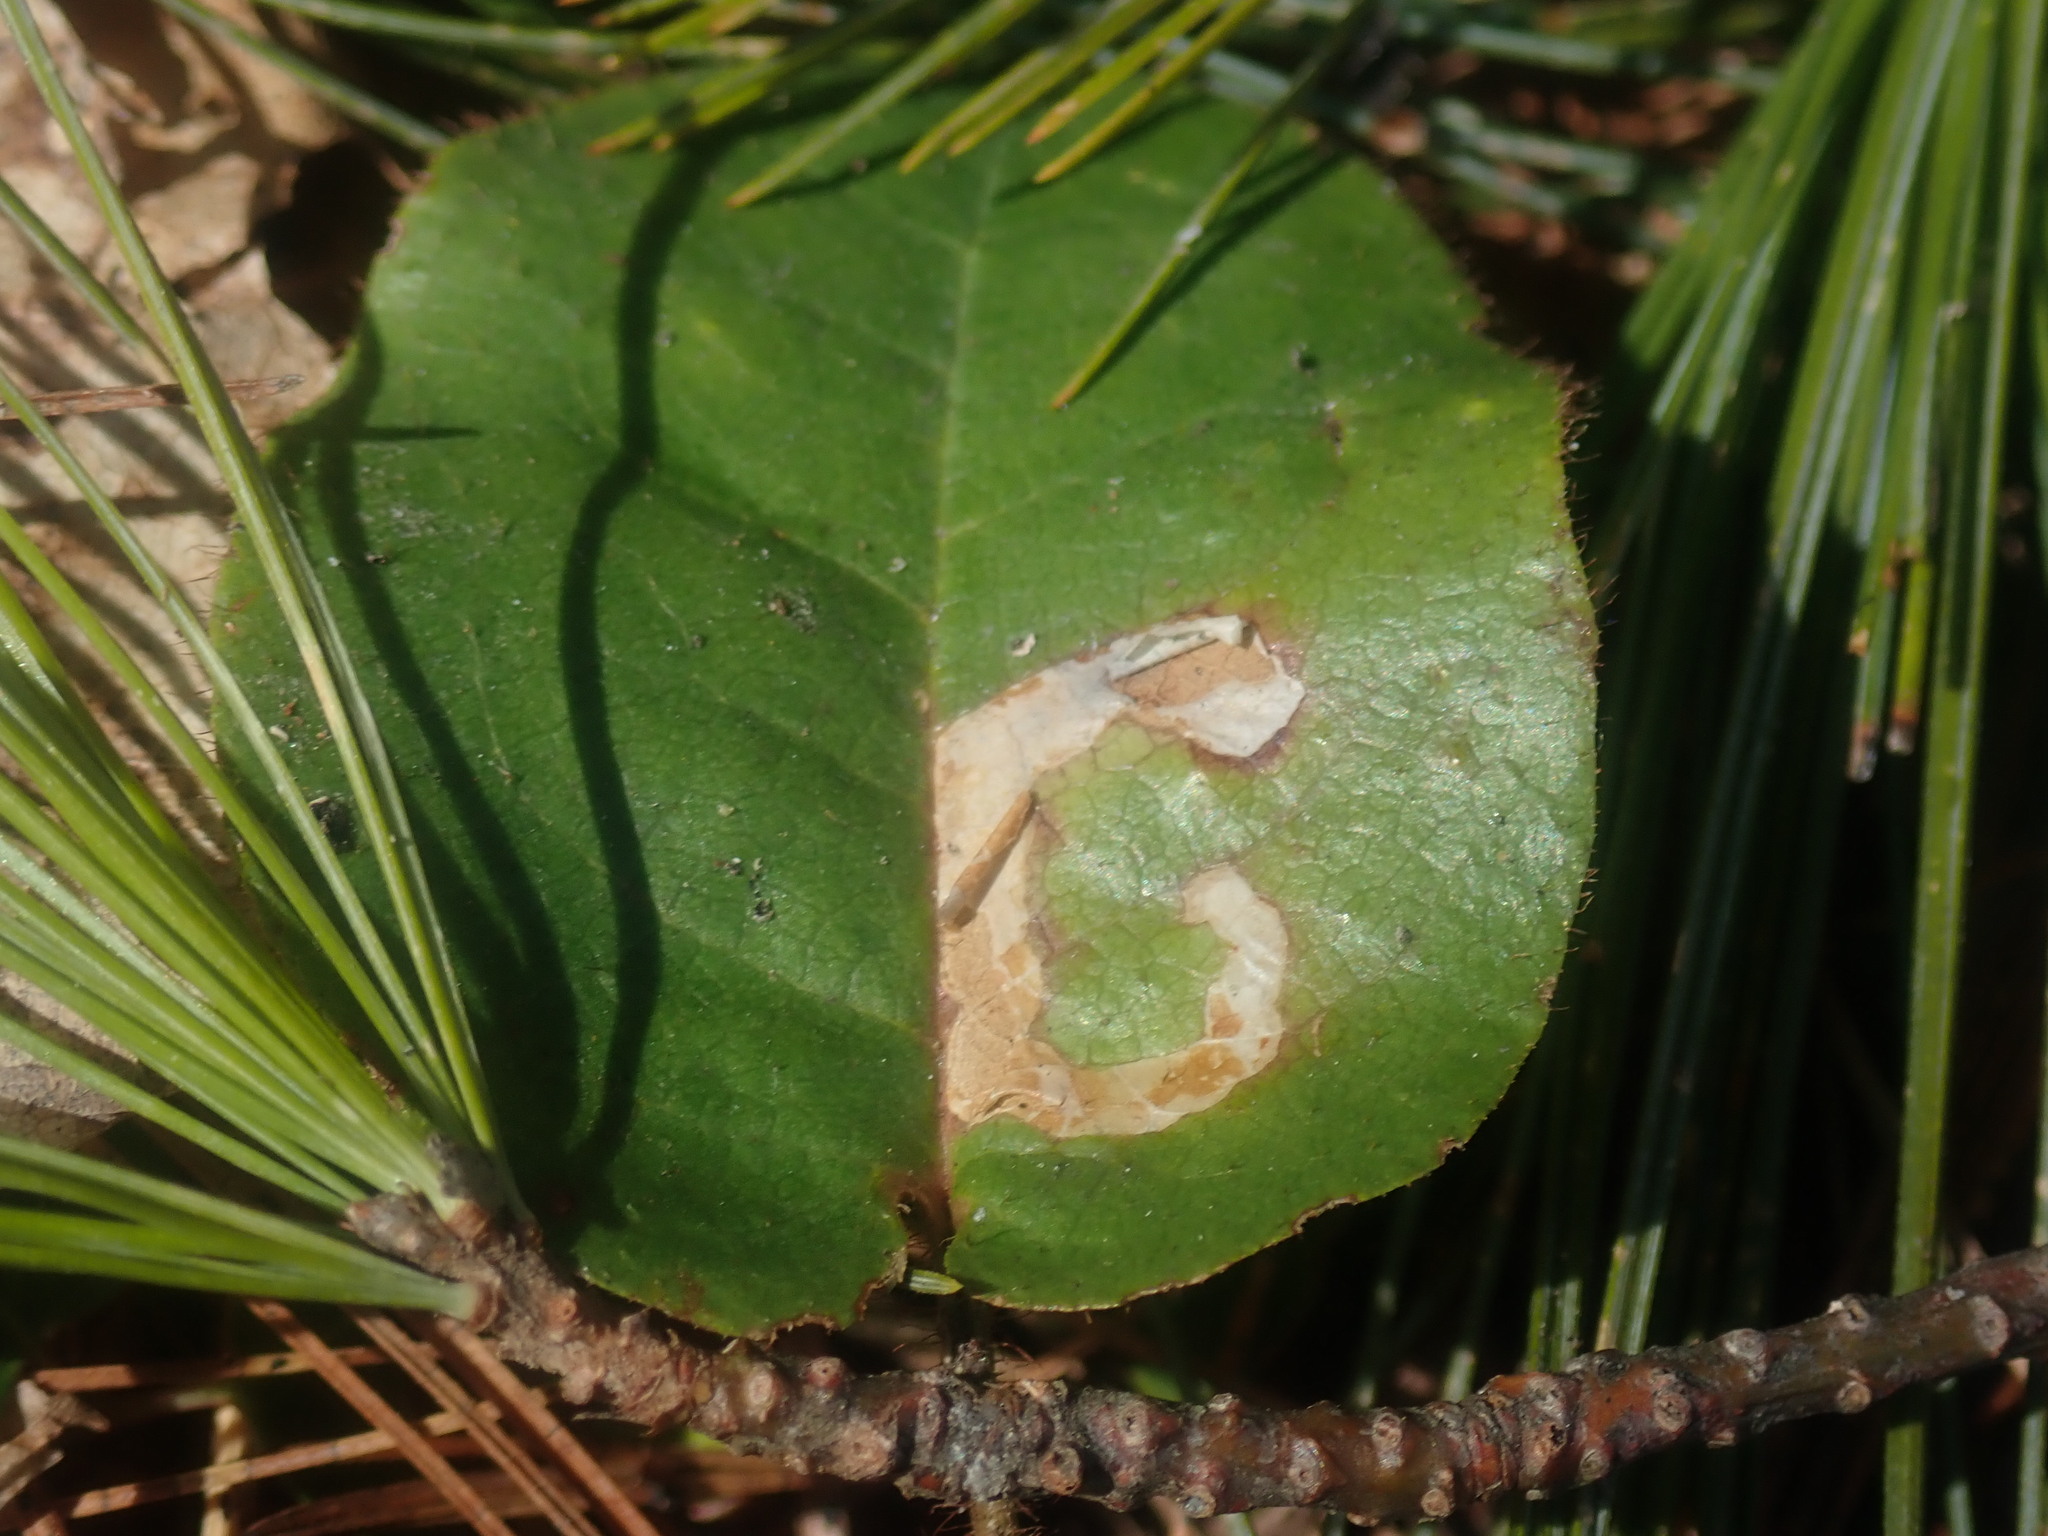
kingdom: Animalia
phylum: Arthropoda
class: Insecta
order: Coleoptera
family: Buprestidae
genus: Brachys
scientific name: Brachys
